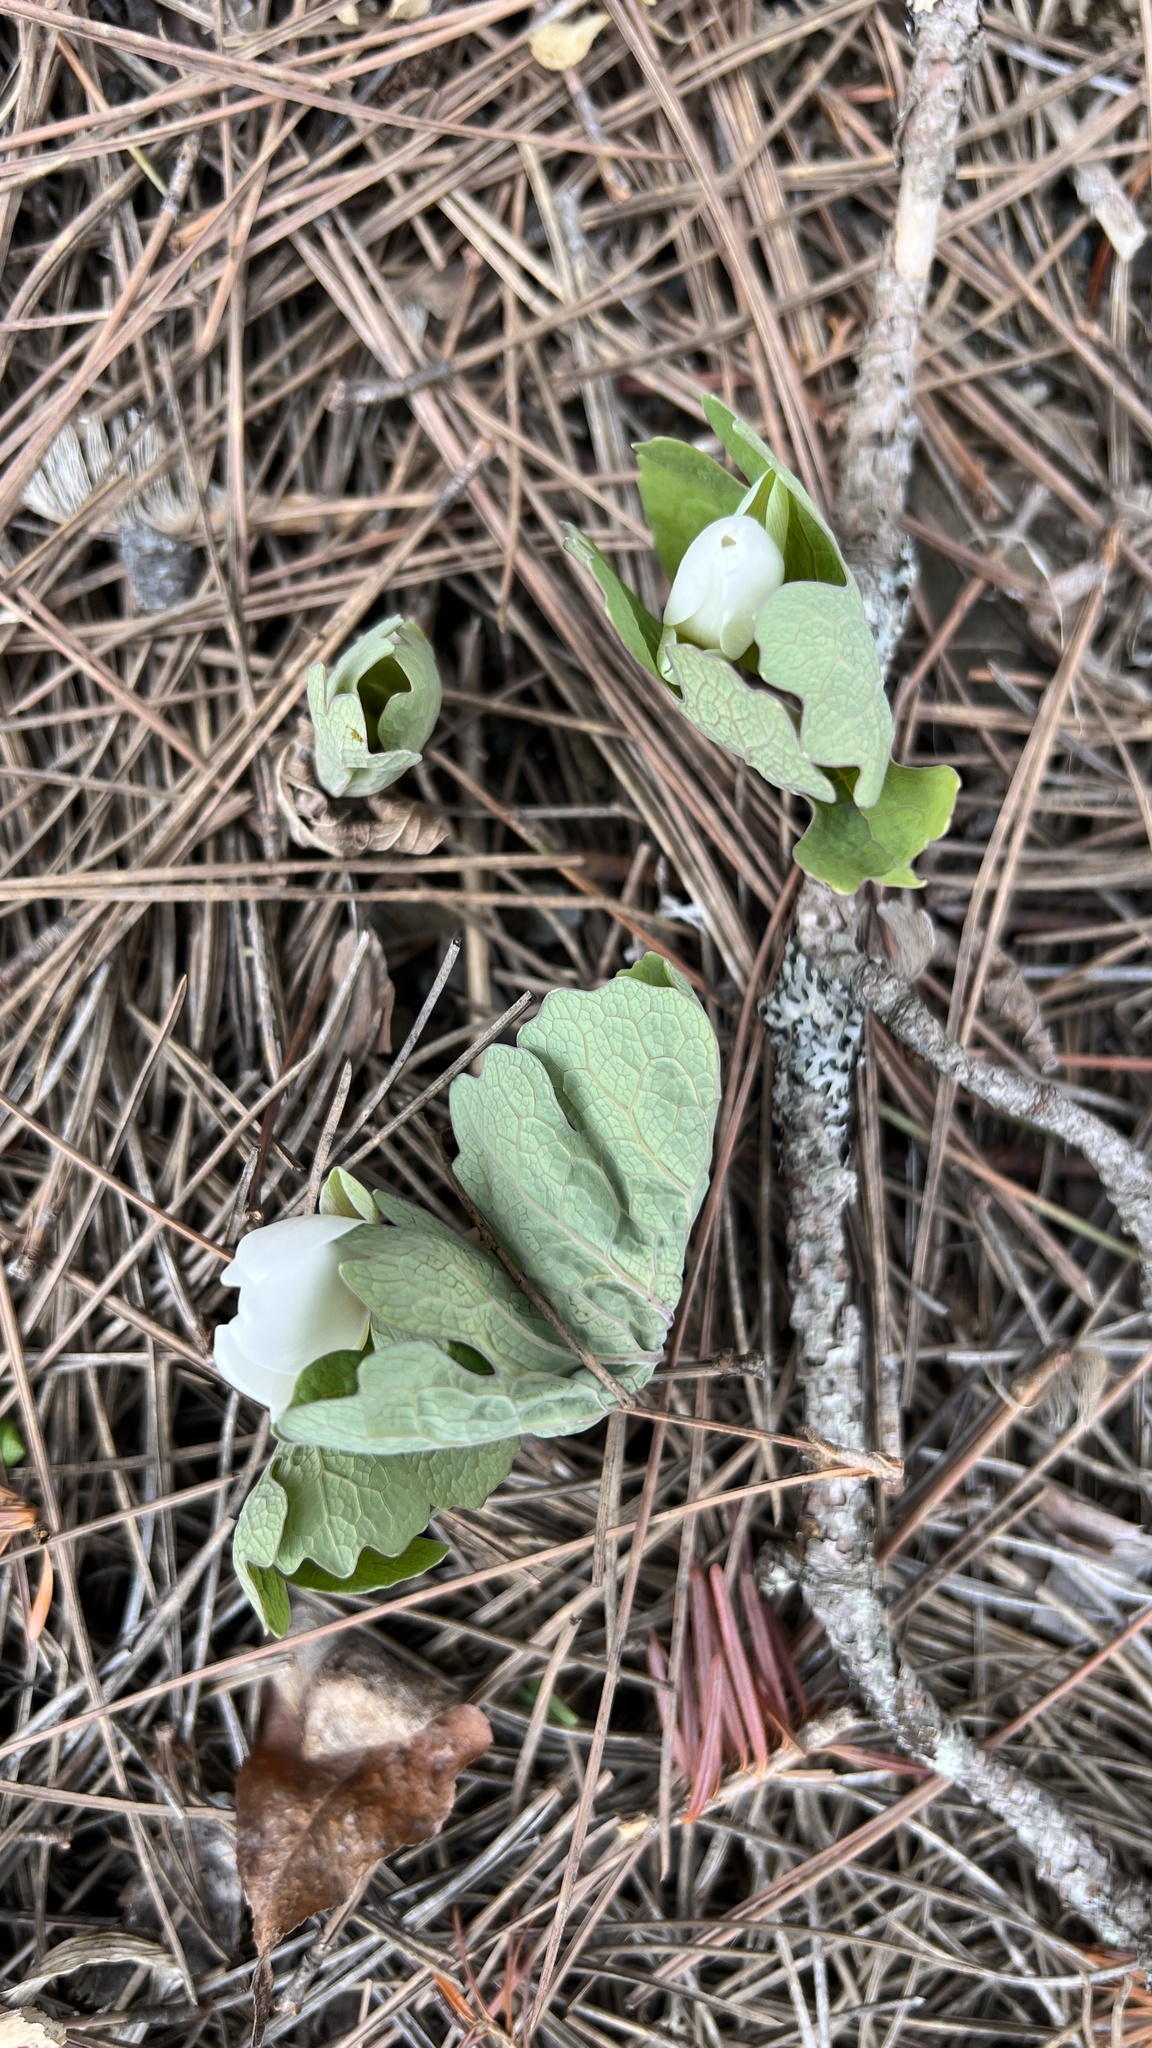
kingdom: Plantae
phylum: Tracheophyta
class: Magnoliopsida
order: Ranunculales
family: Papaveraceae
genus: Sanguinaria
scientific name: Sanguinaria canadensis
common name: Bloodroot
